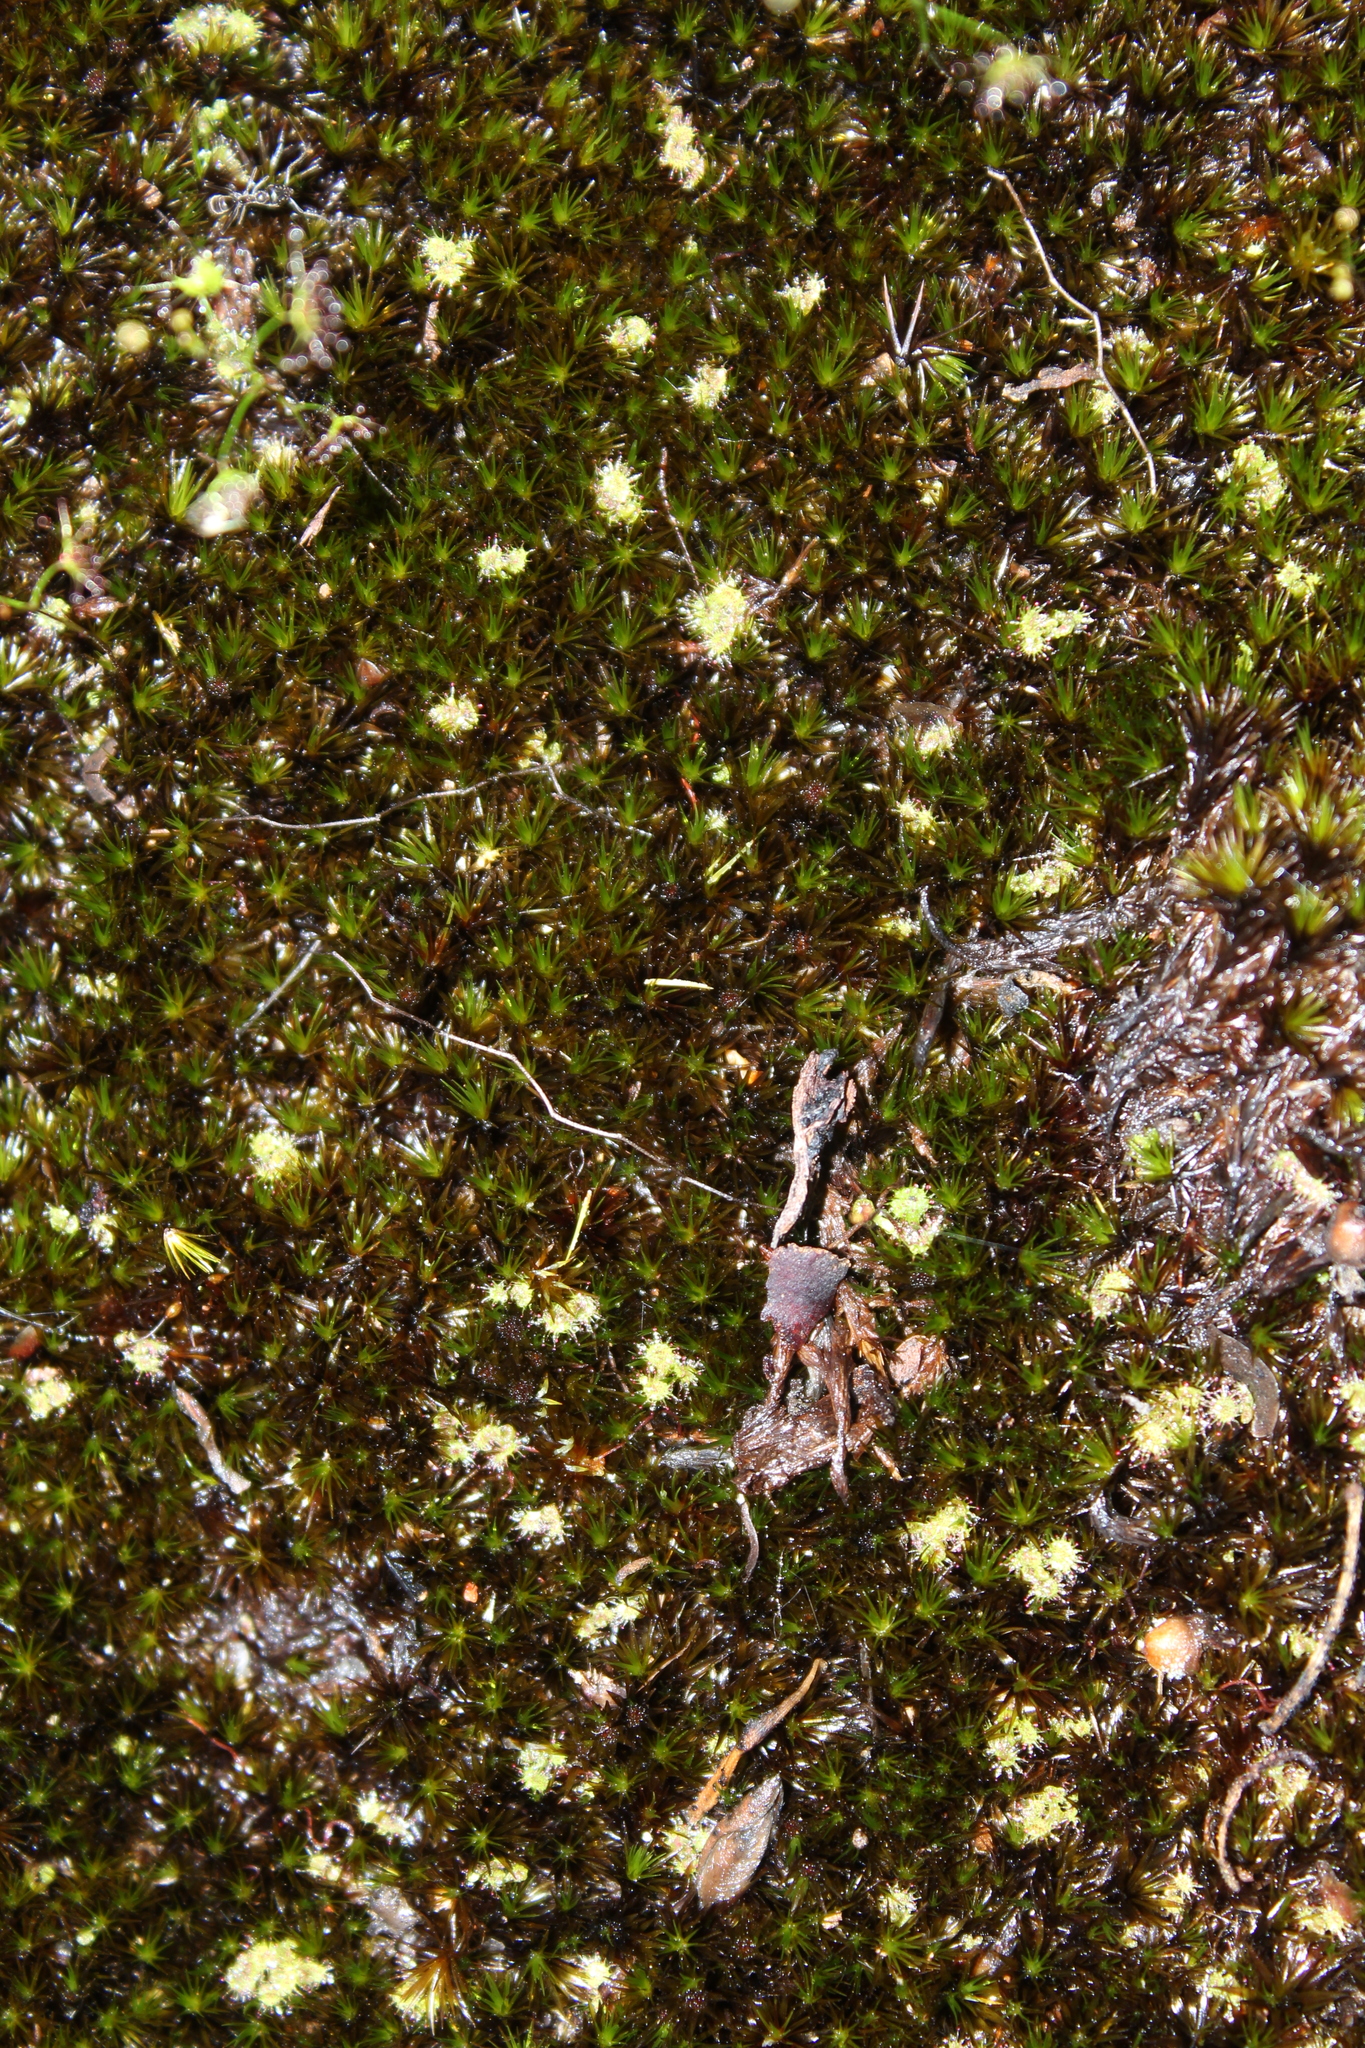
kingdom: Plantae
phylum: Tracheophyta
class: Magnoliopsida
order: Caryophyllales
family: Droseraceae
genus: Drosera
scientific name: Drosera modesta
